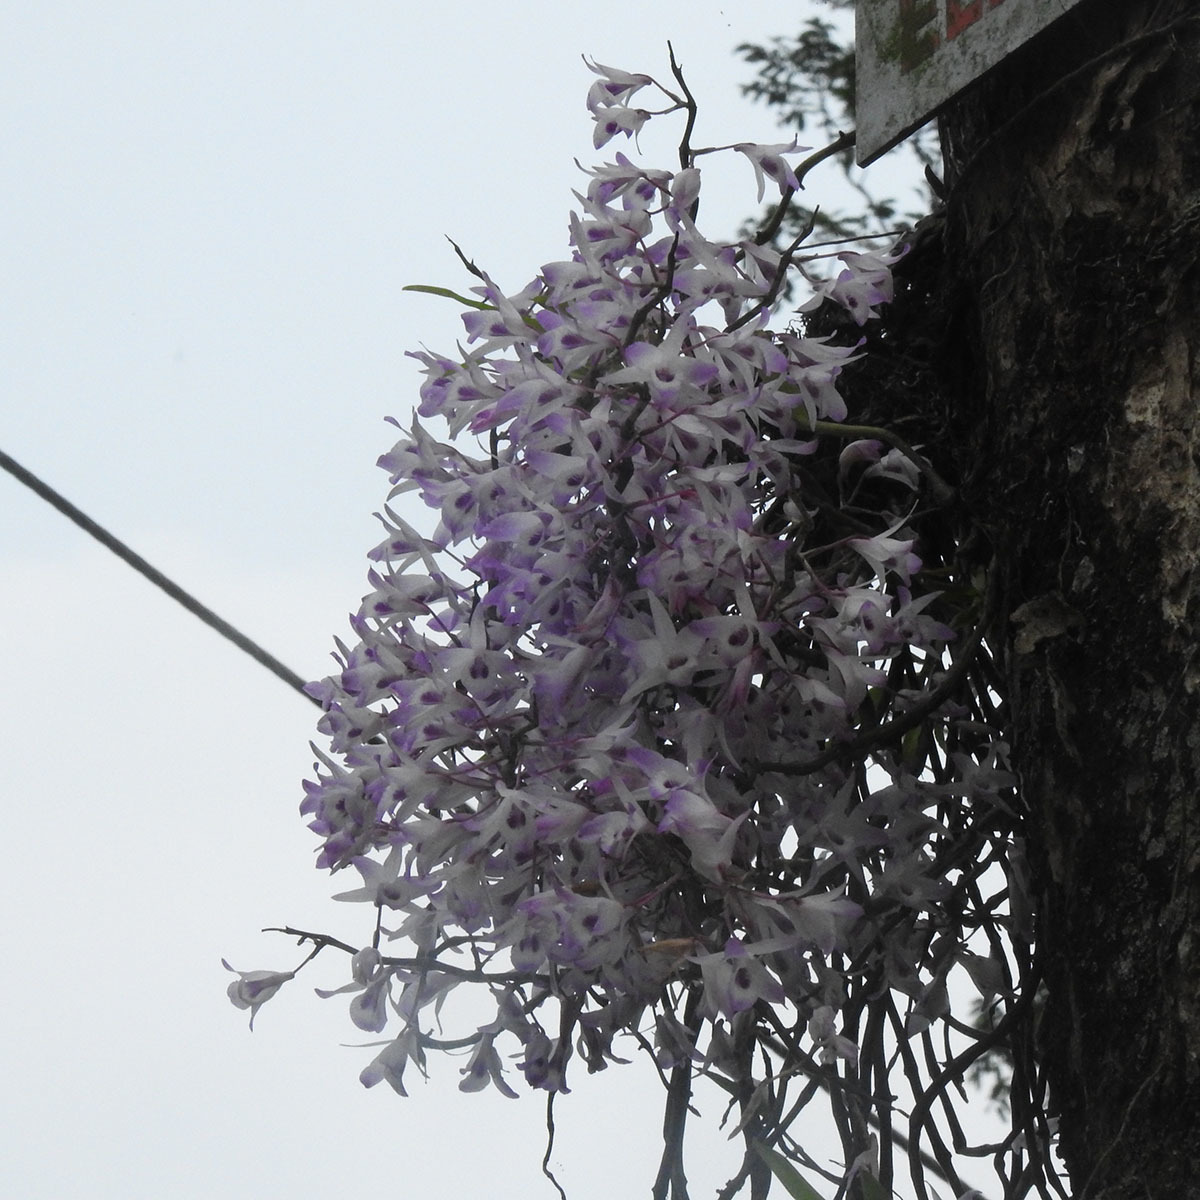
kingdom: Plantae
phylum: Tracheophyta
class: Liliopsida
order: Asparagales
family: Orchidaceae
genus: Dendrobium
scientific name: Dendrobium transparens
